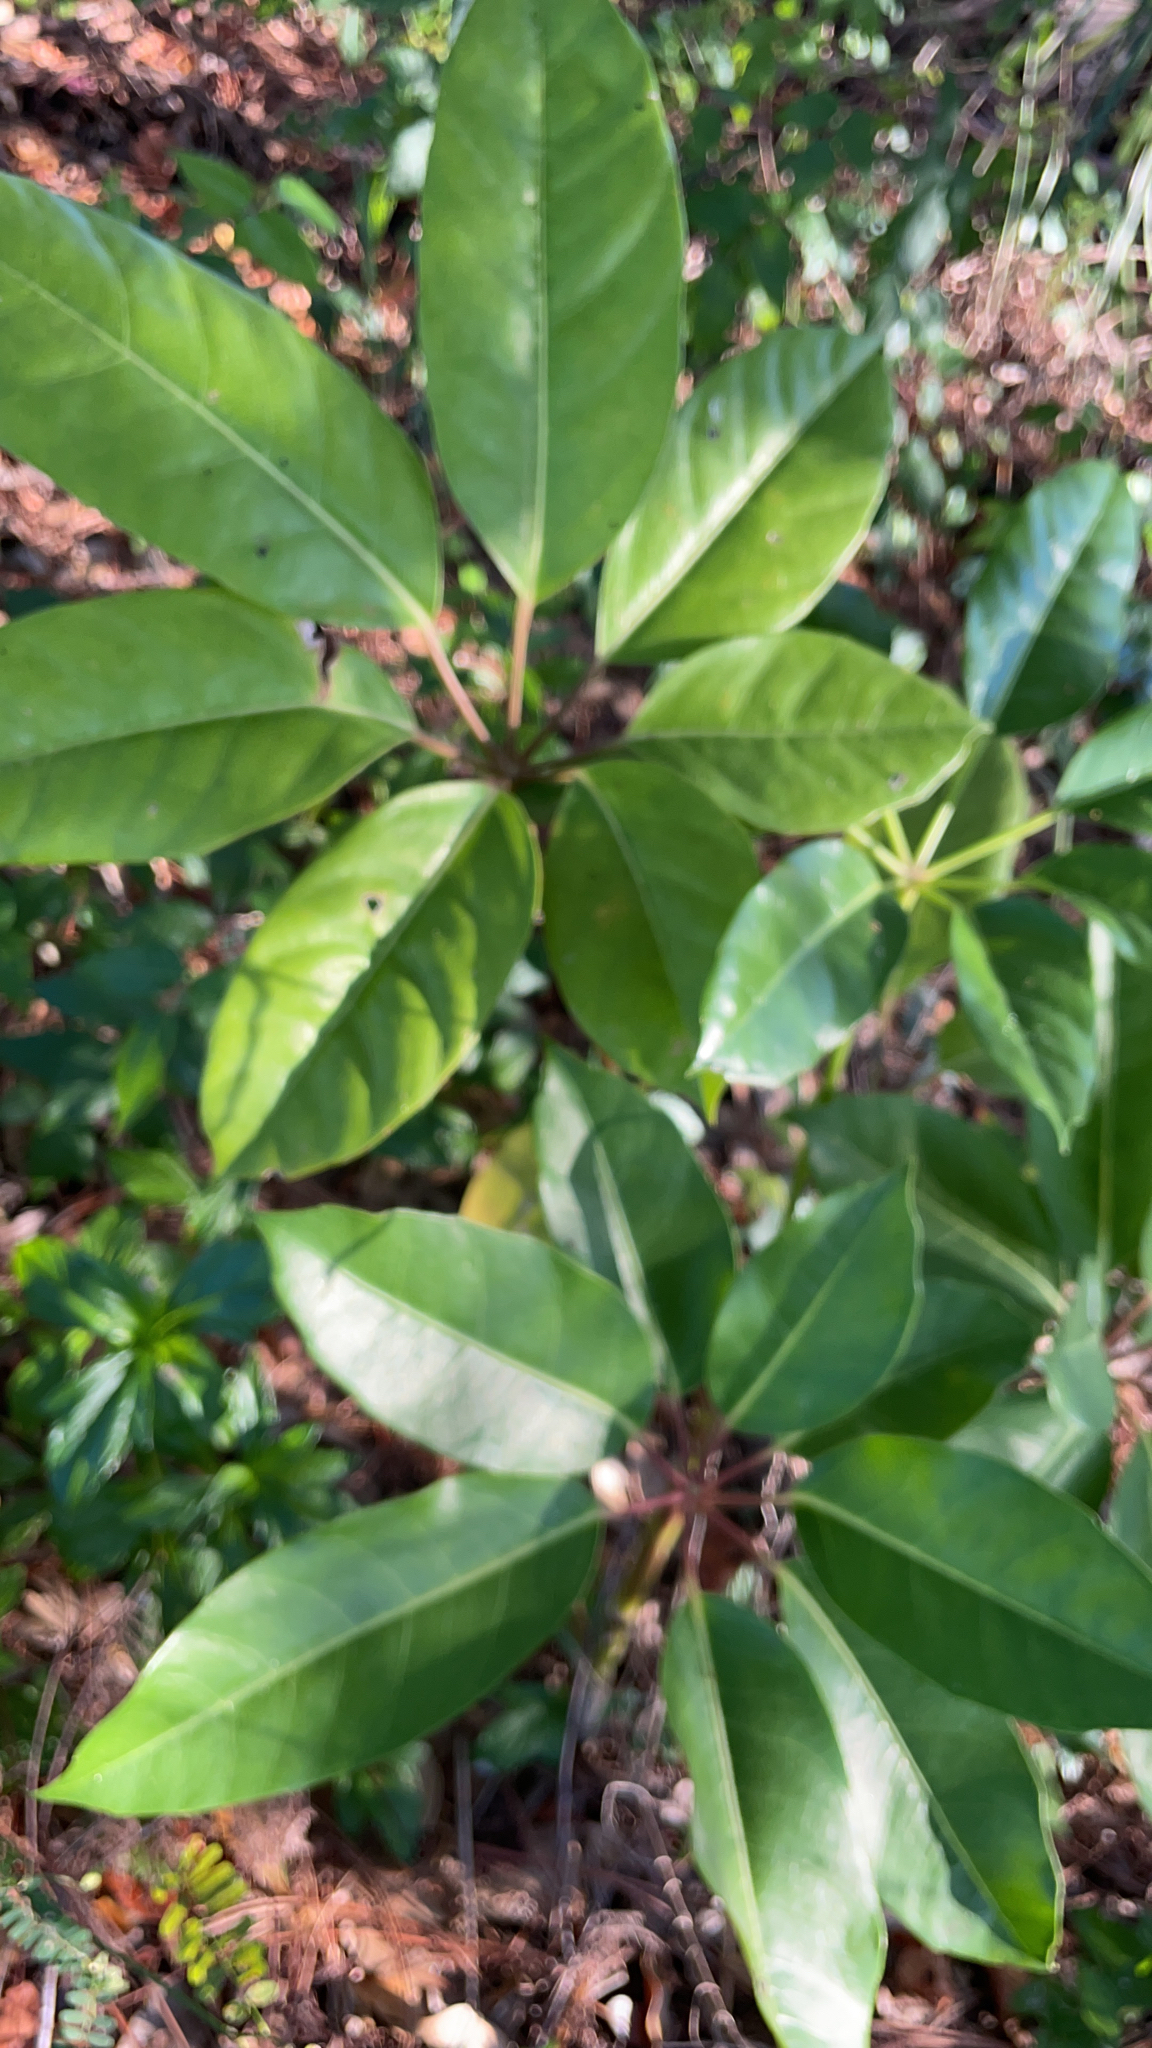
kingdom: Plantae
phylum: Tracheophyta
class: Magnoliopsida
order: Apiales
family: Araliaceae
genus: Heptapleurum
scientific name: Heptapleurum actinophyllum
